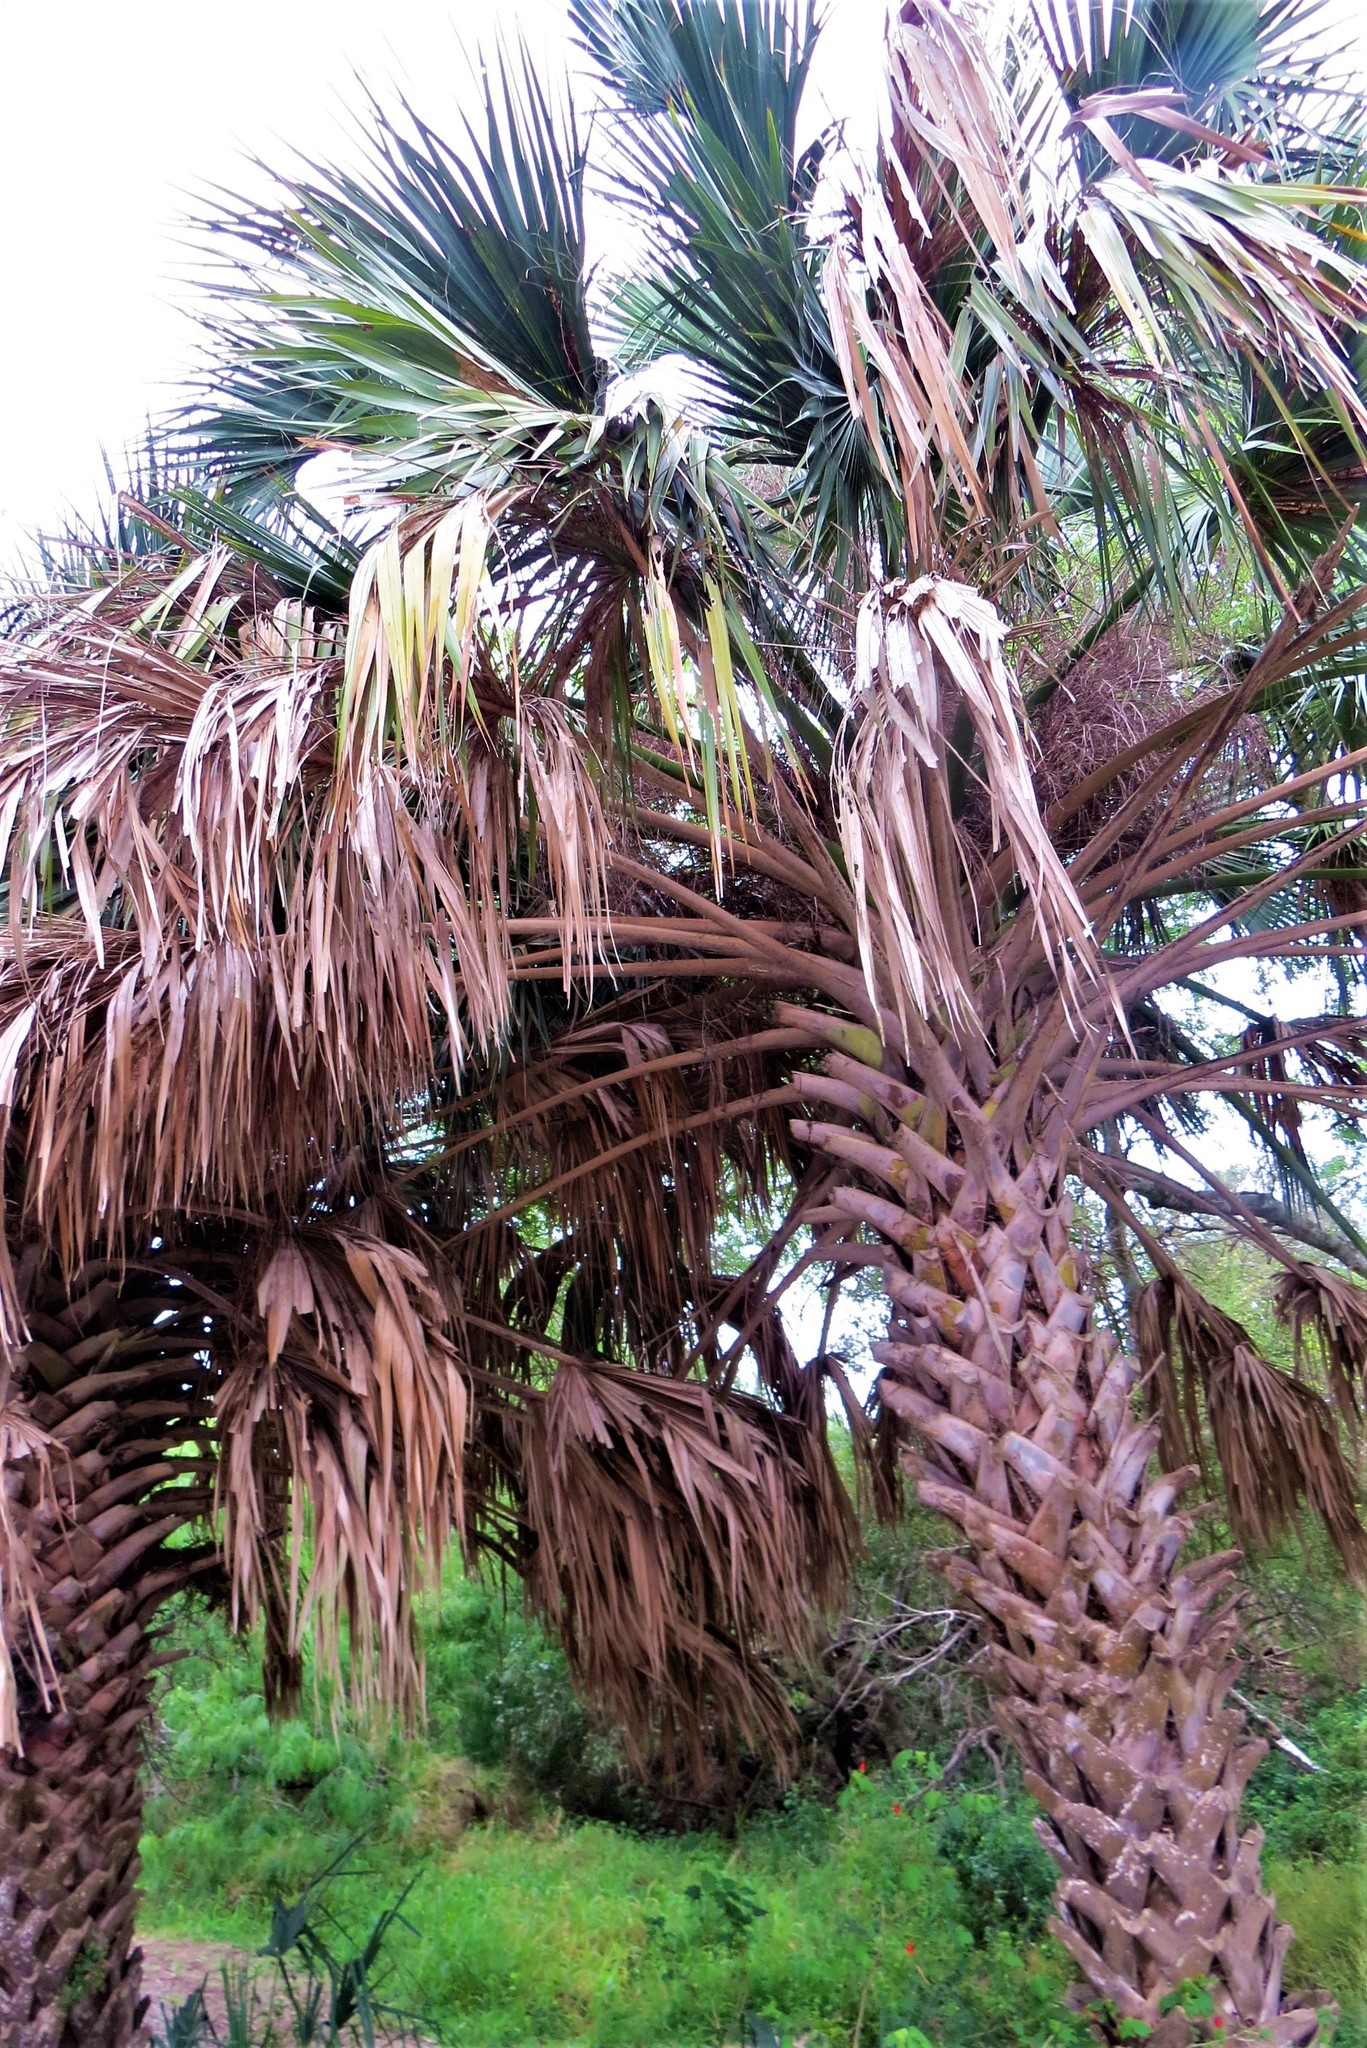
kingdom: Plantae
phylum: Tracheophyta
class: Liliopsida
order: Arecales
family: Arecaceae
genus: Sabal
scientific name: Sabal mexicana
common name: Texas palmetto
